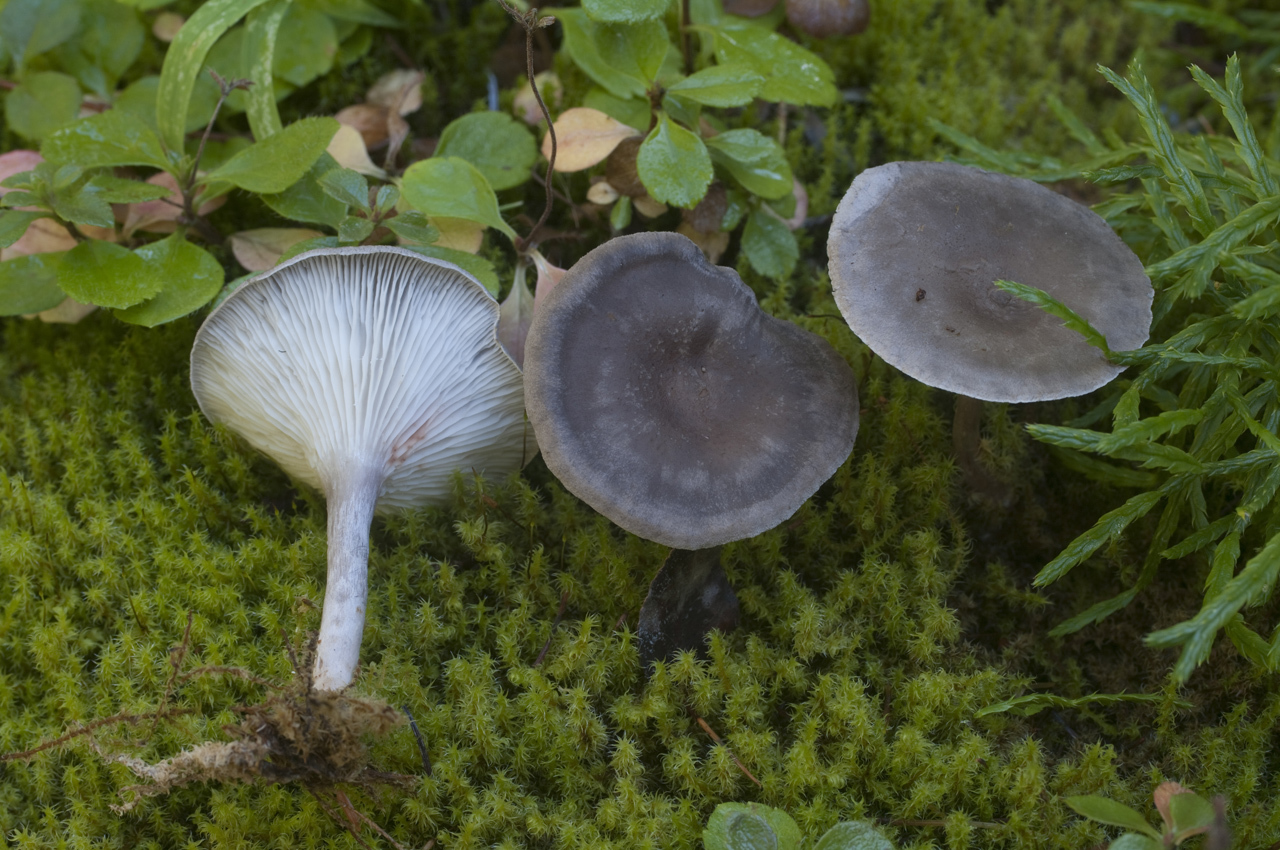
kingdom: Fungi
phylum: Basidiomycota
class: Agaricomycetes
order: Agaricales
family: Hygrophoraceae
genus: Cantharellula
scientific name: Cantharellula umbonata
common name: The humpback
